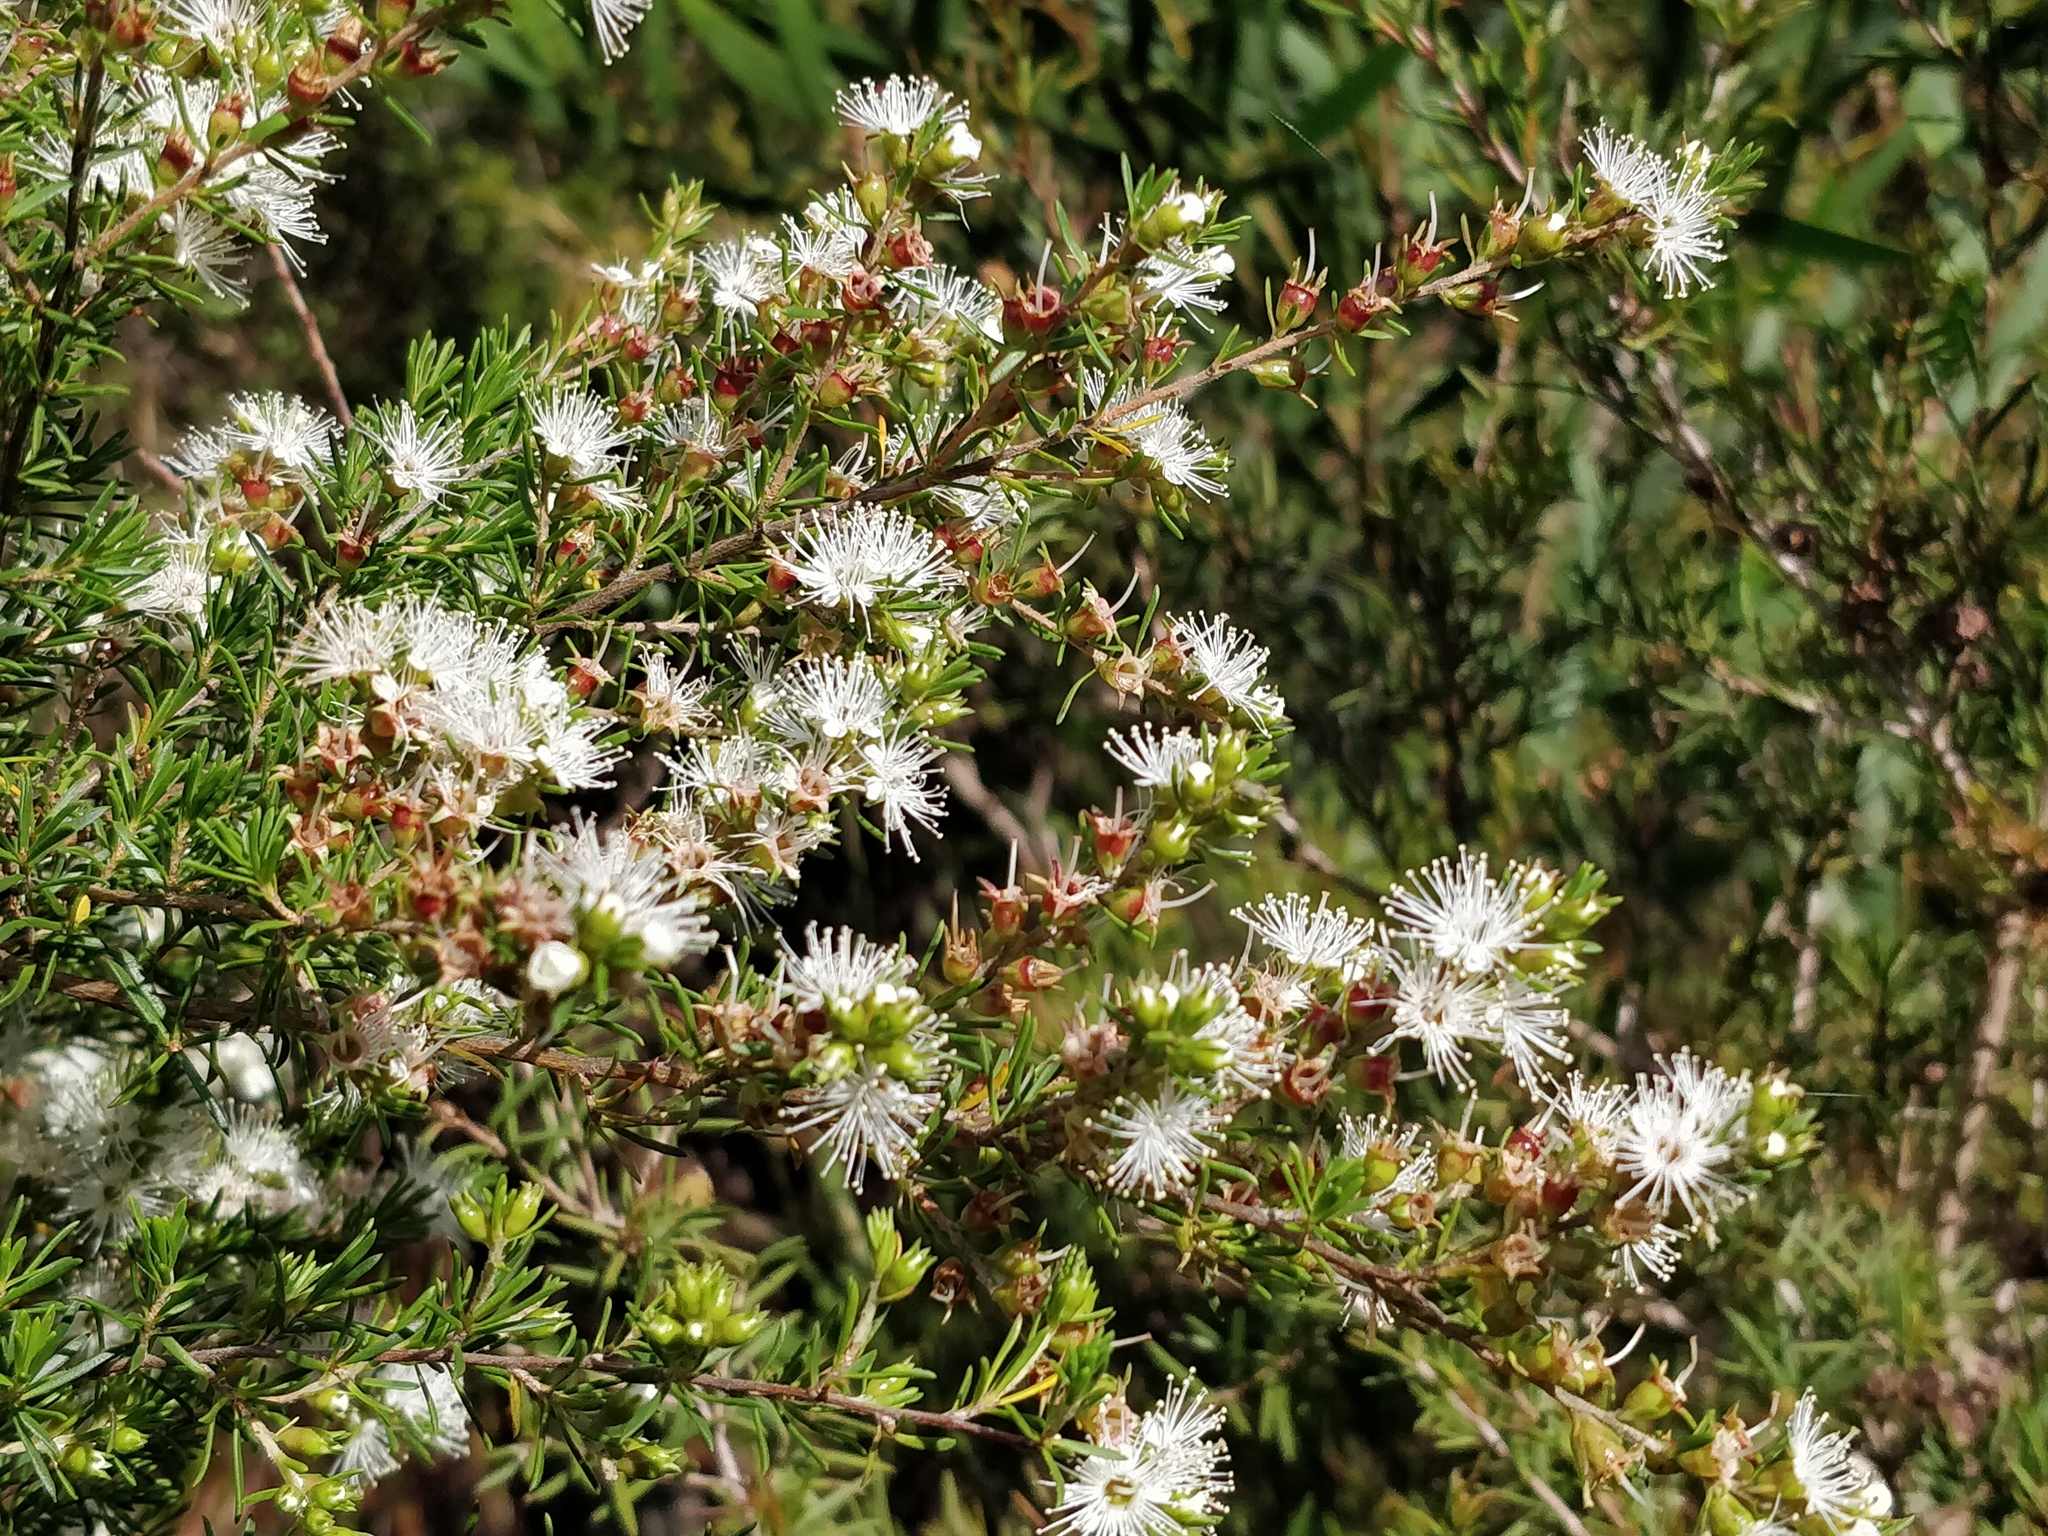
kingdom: Plantae
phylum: Tracheophyta
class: Magnoliopsida
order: Myrtales
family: Myrtaceae
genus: Kunzea
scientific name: Kunzea ambigua
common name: Tickbush
